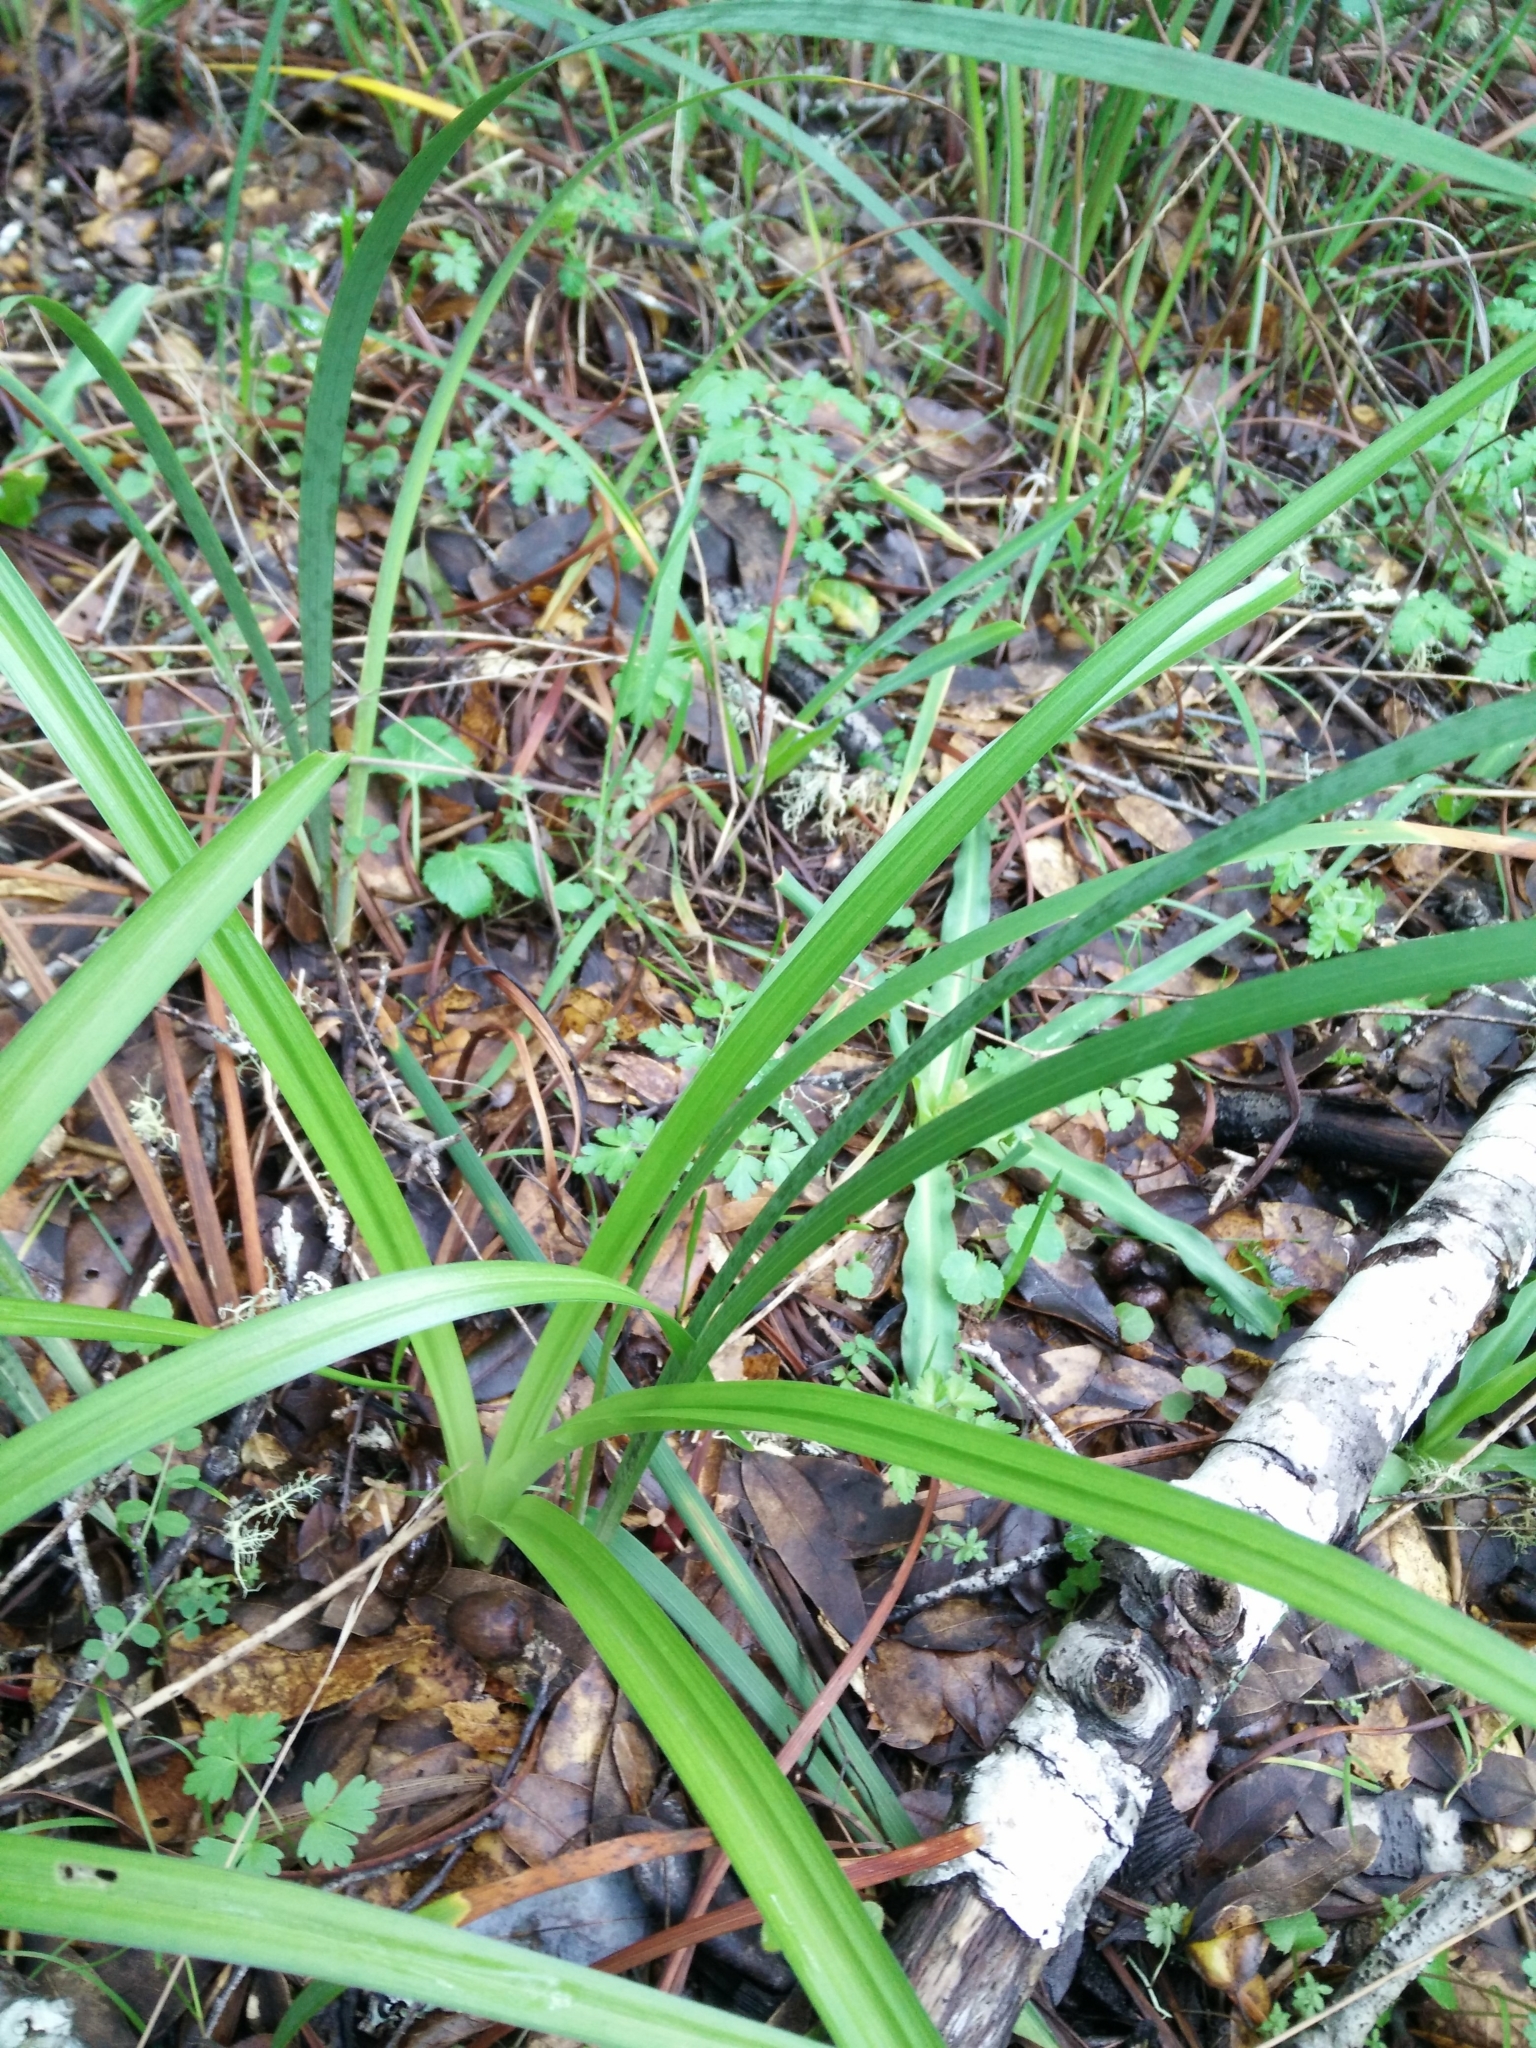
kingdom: Plantae
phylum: Tracheophyta
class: Liliopsida
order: Liliales
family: Melanthiaceae
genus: Toxicoscordion
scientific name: Toxicoscordion fremontii
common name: Fremont's death camas
